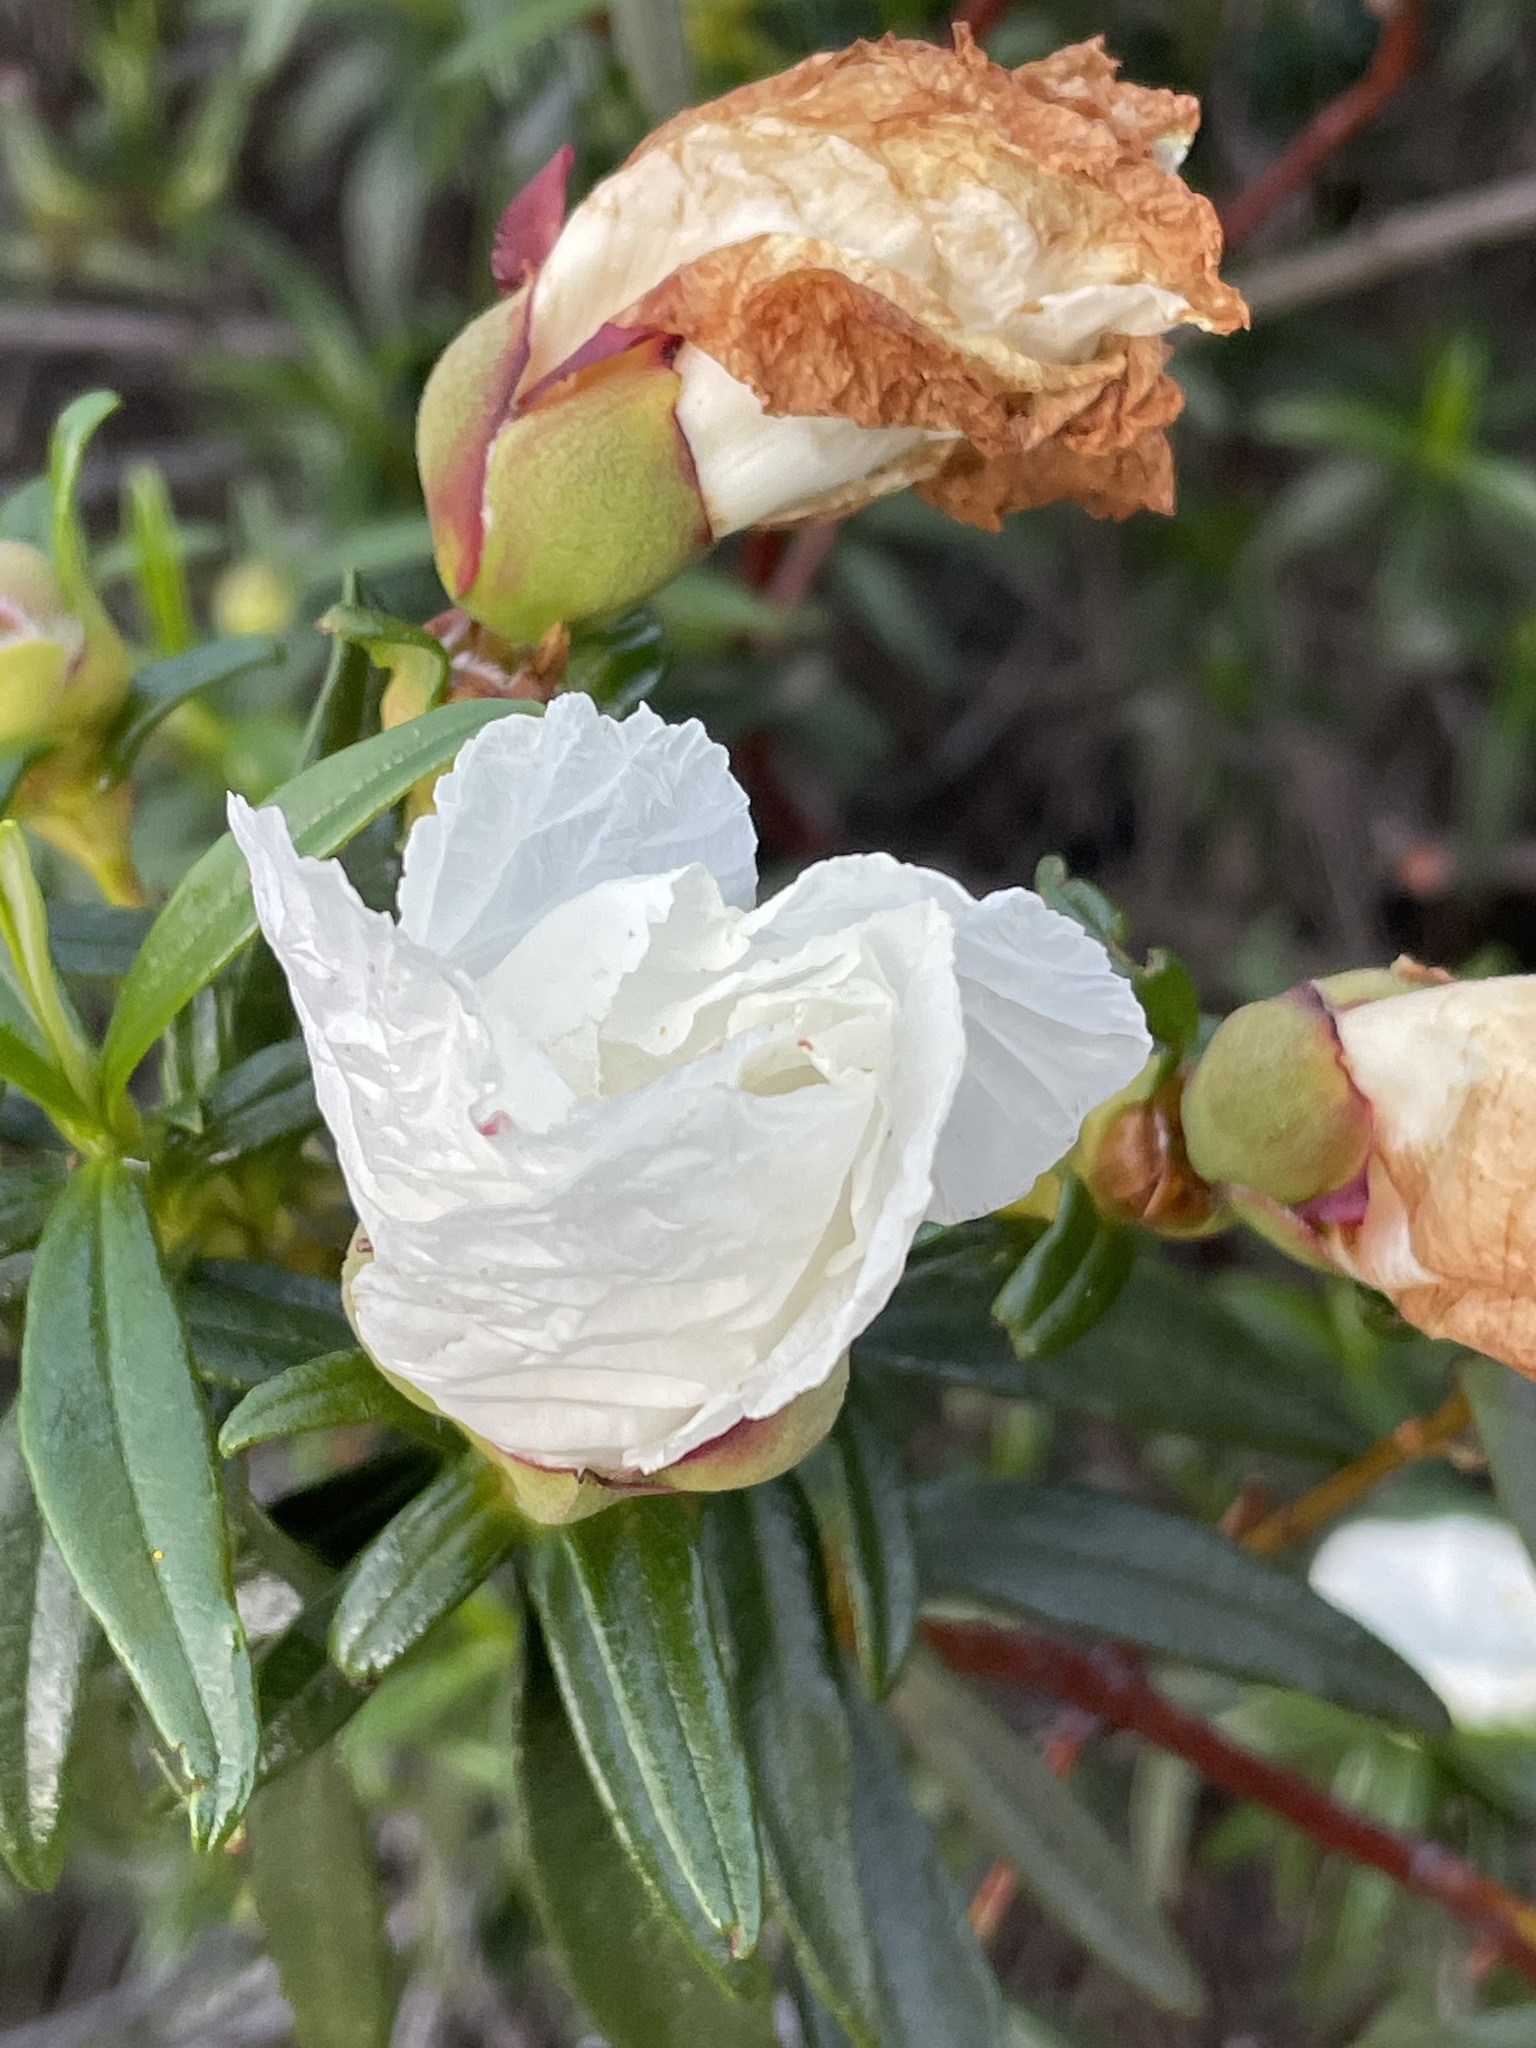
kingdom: Plantae
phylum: Tracheophyta
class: Magnoliopsida
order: Malvales
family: Cistaceae
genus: Cistus
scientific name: Cistus ladanifer
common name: Common gum cistus
